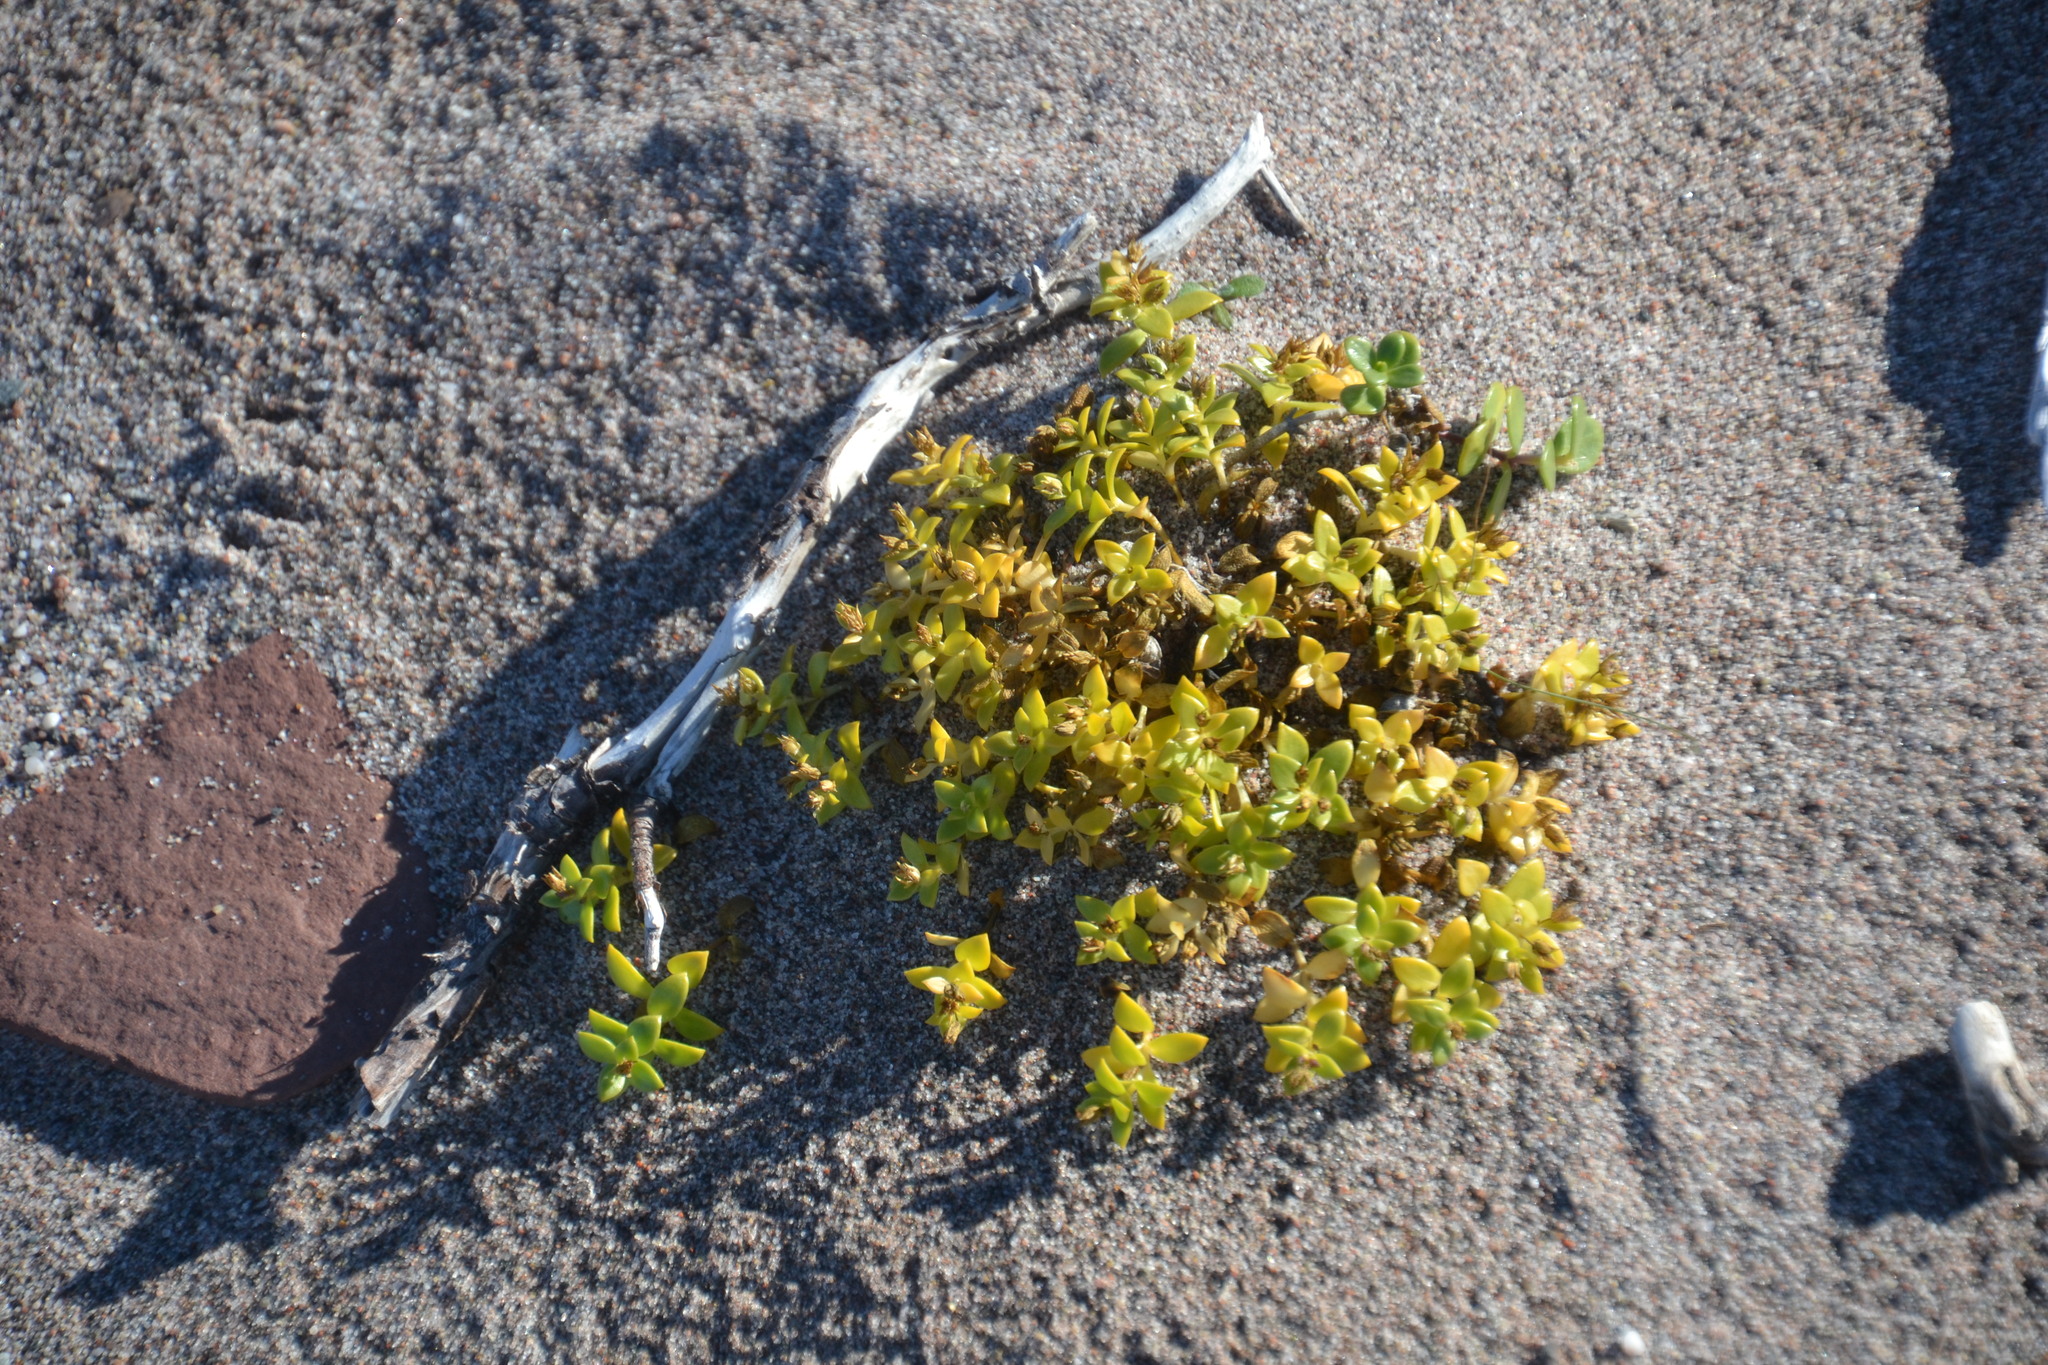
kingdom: Plantae
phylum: Tracheophyta
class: Magnoliopsida
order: Caryophyllales
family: Caryophyllaceae
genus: Honckenya
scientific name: Honckenya peploides
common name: Sea sandwort
